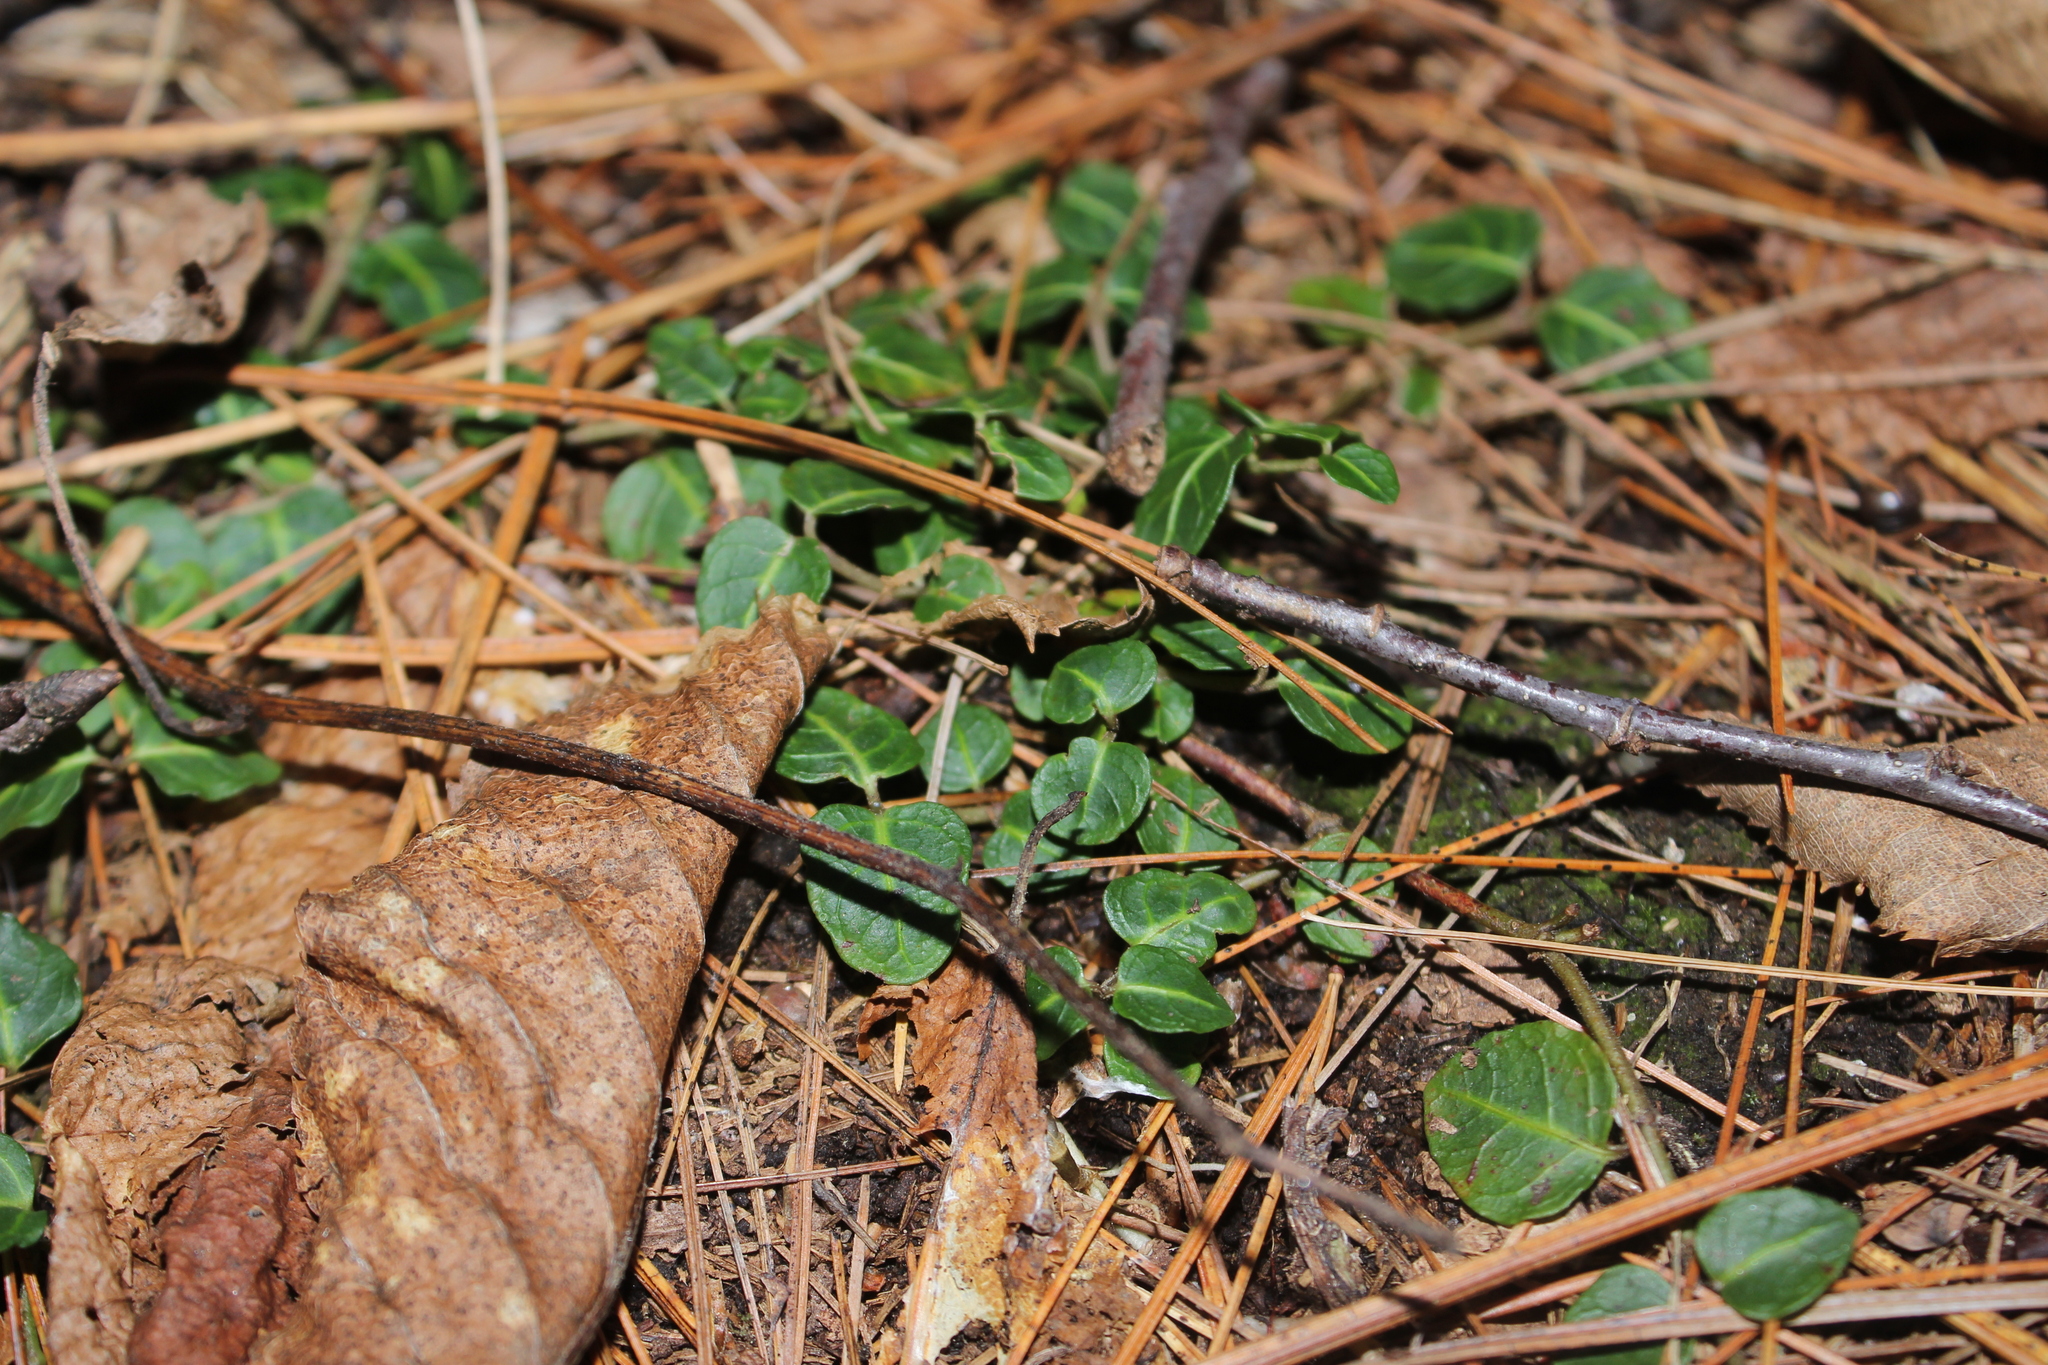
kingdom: Plantae
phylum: Tracheophyta
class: Magnoliopsida
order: Gentianales
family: Rubiaceae
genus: Mitchella
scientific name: Mitchella repens
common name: Partridge-berry
